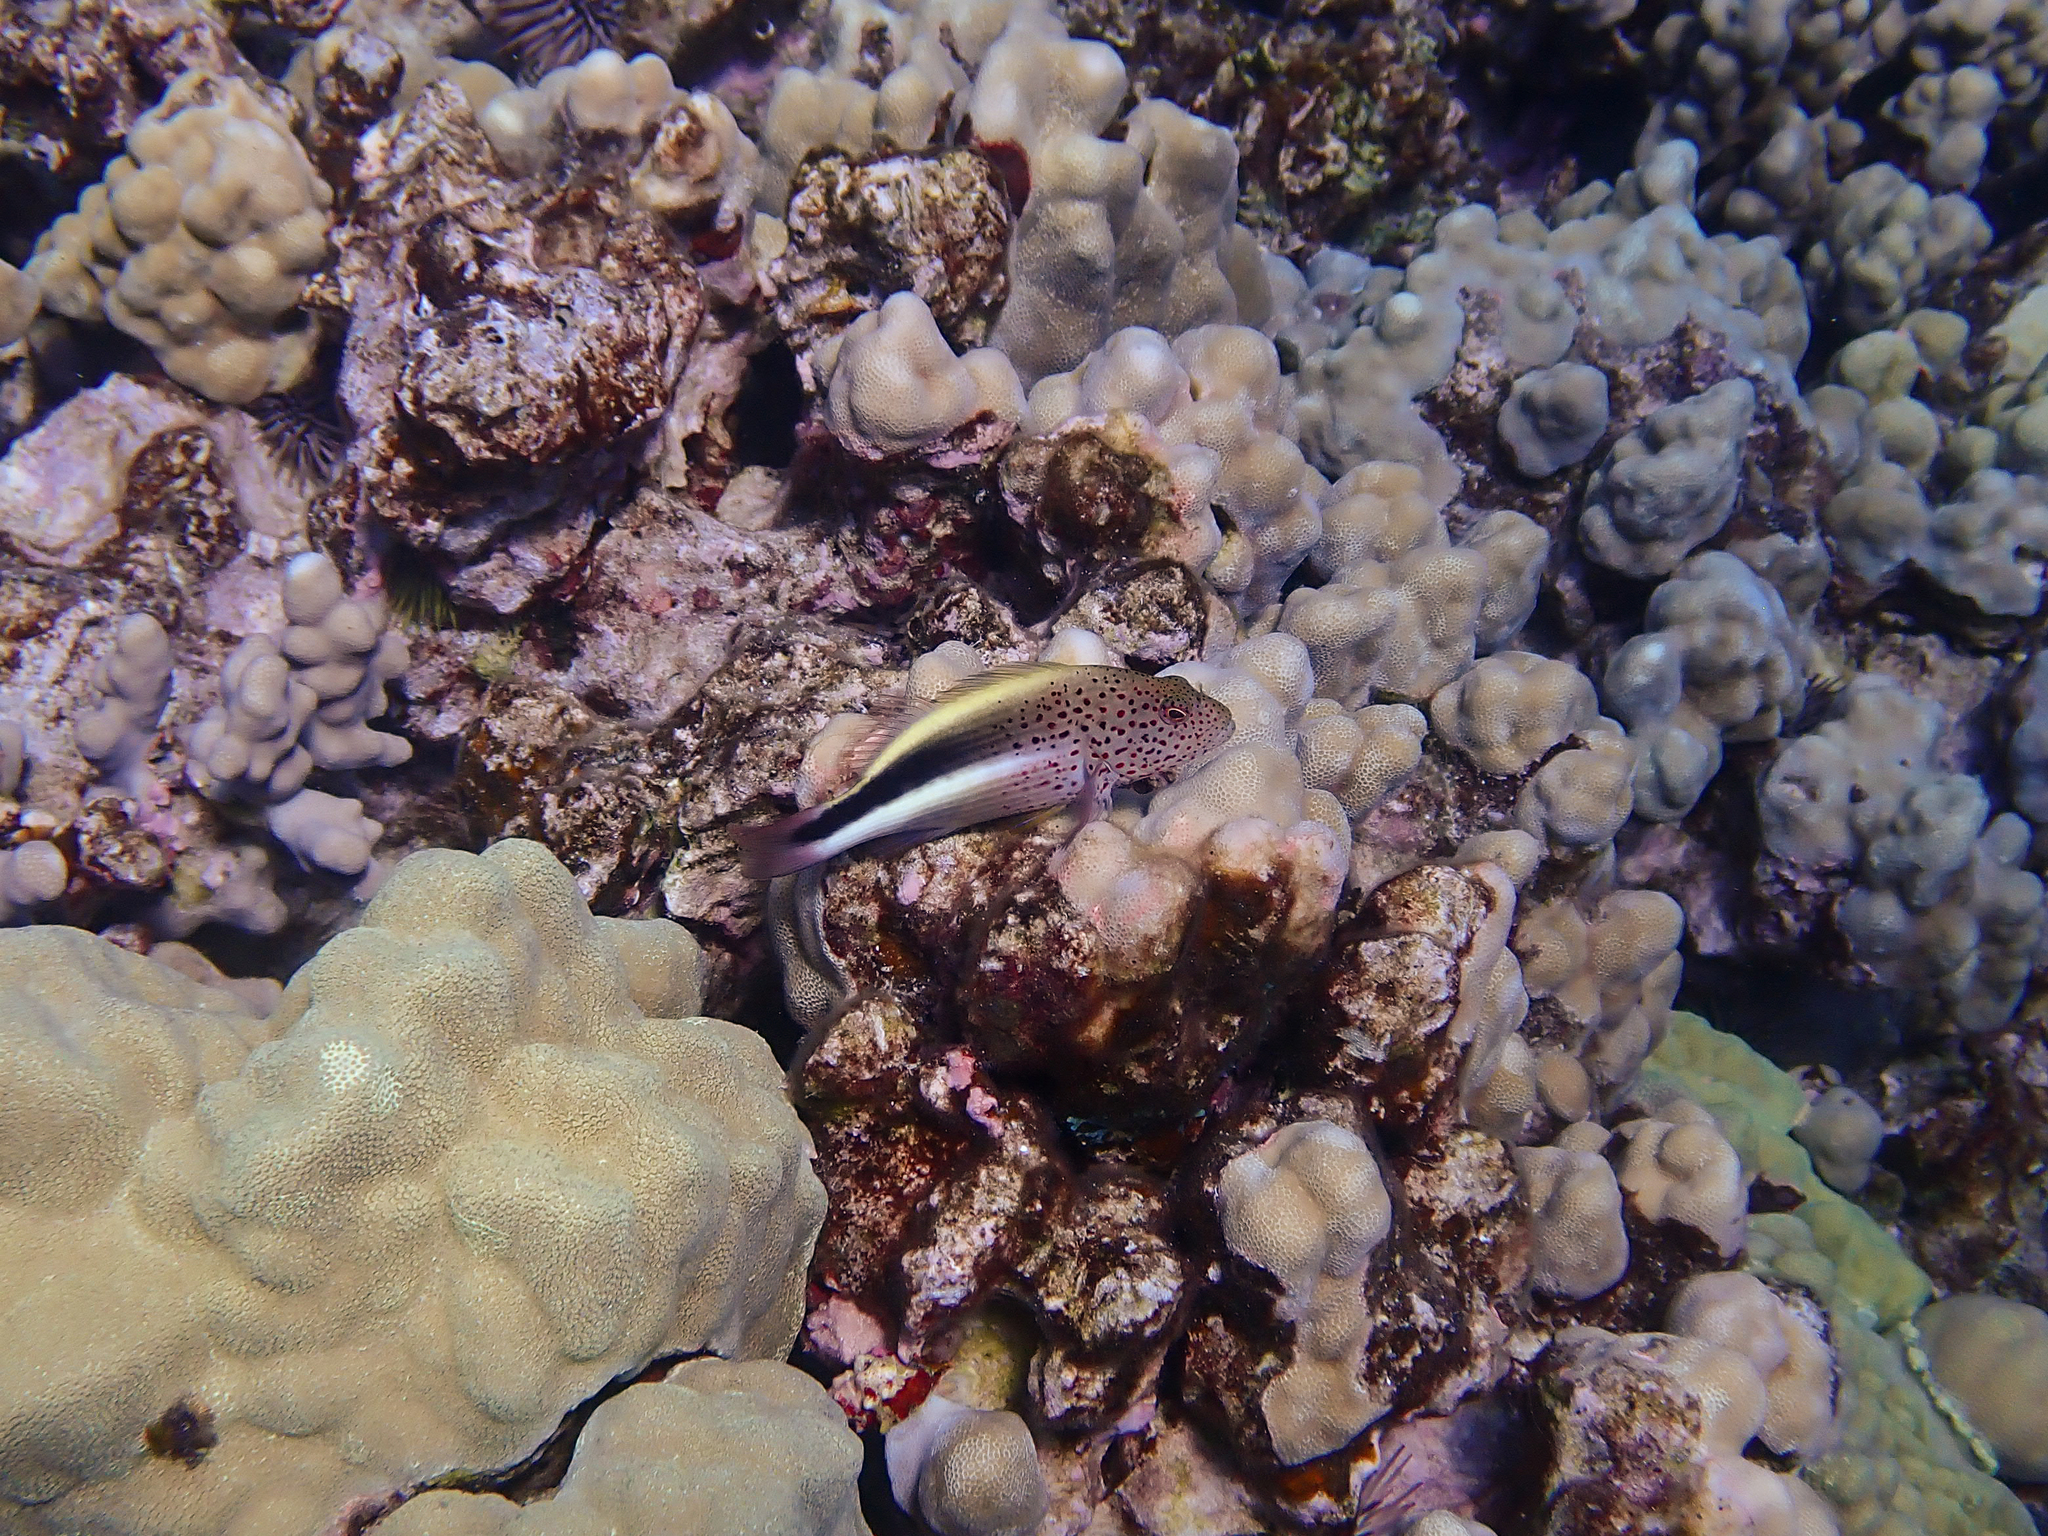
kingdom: Animalia
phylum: Chordata
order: Perciformes
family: Cirrhitidae
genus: Paracirrhites
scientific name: Paracirrhites forsteri
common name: Freckled hawkfish
